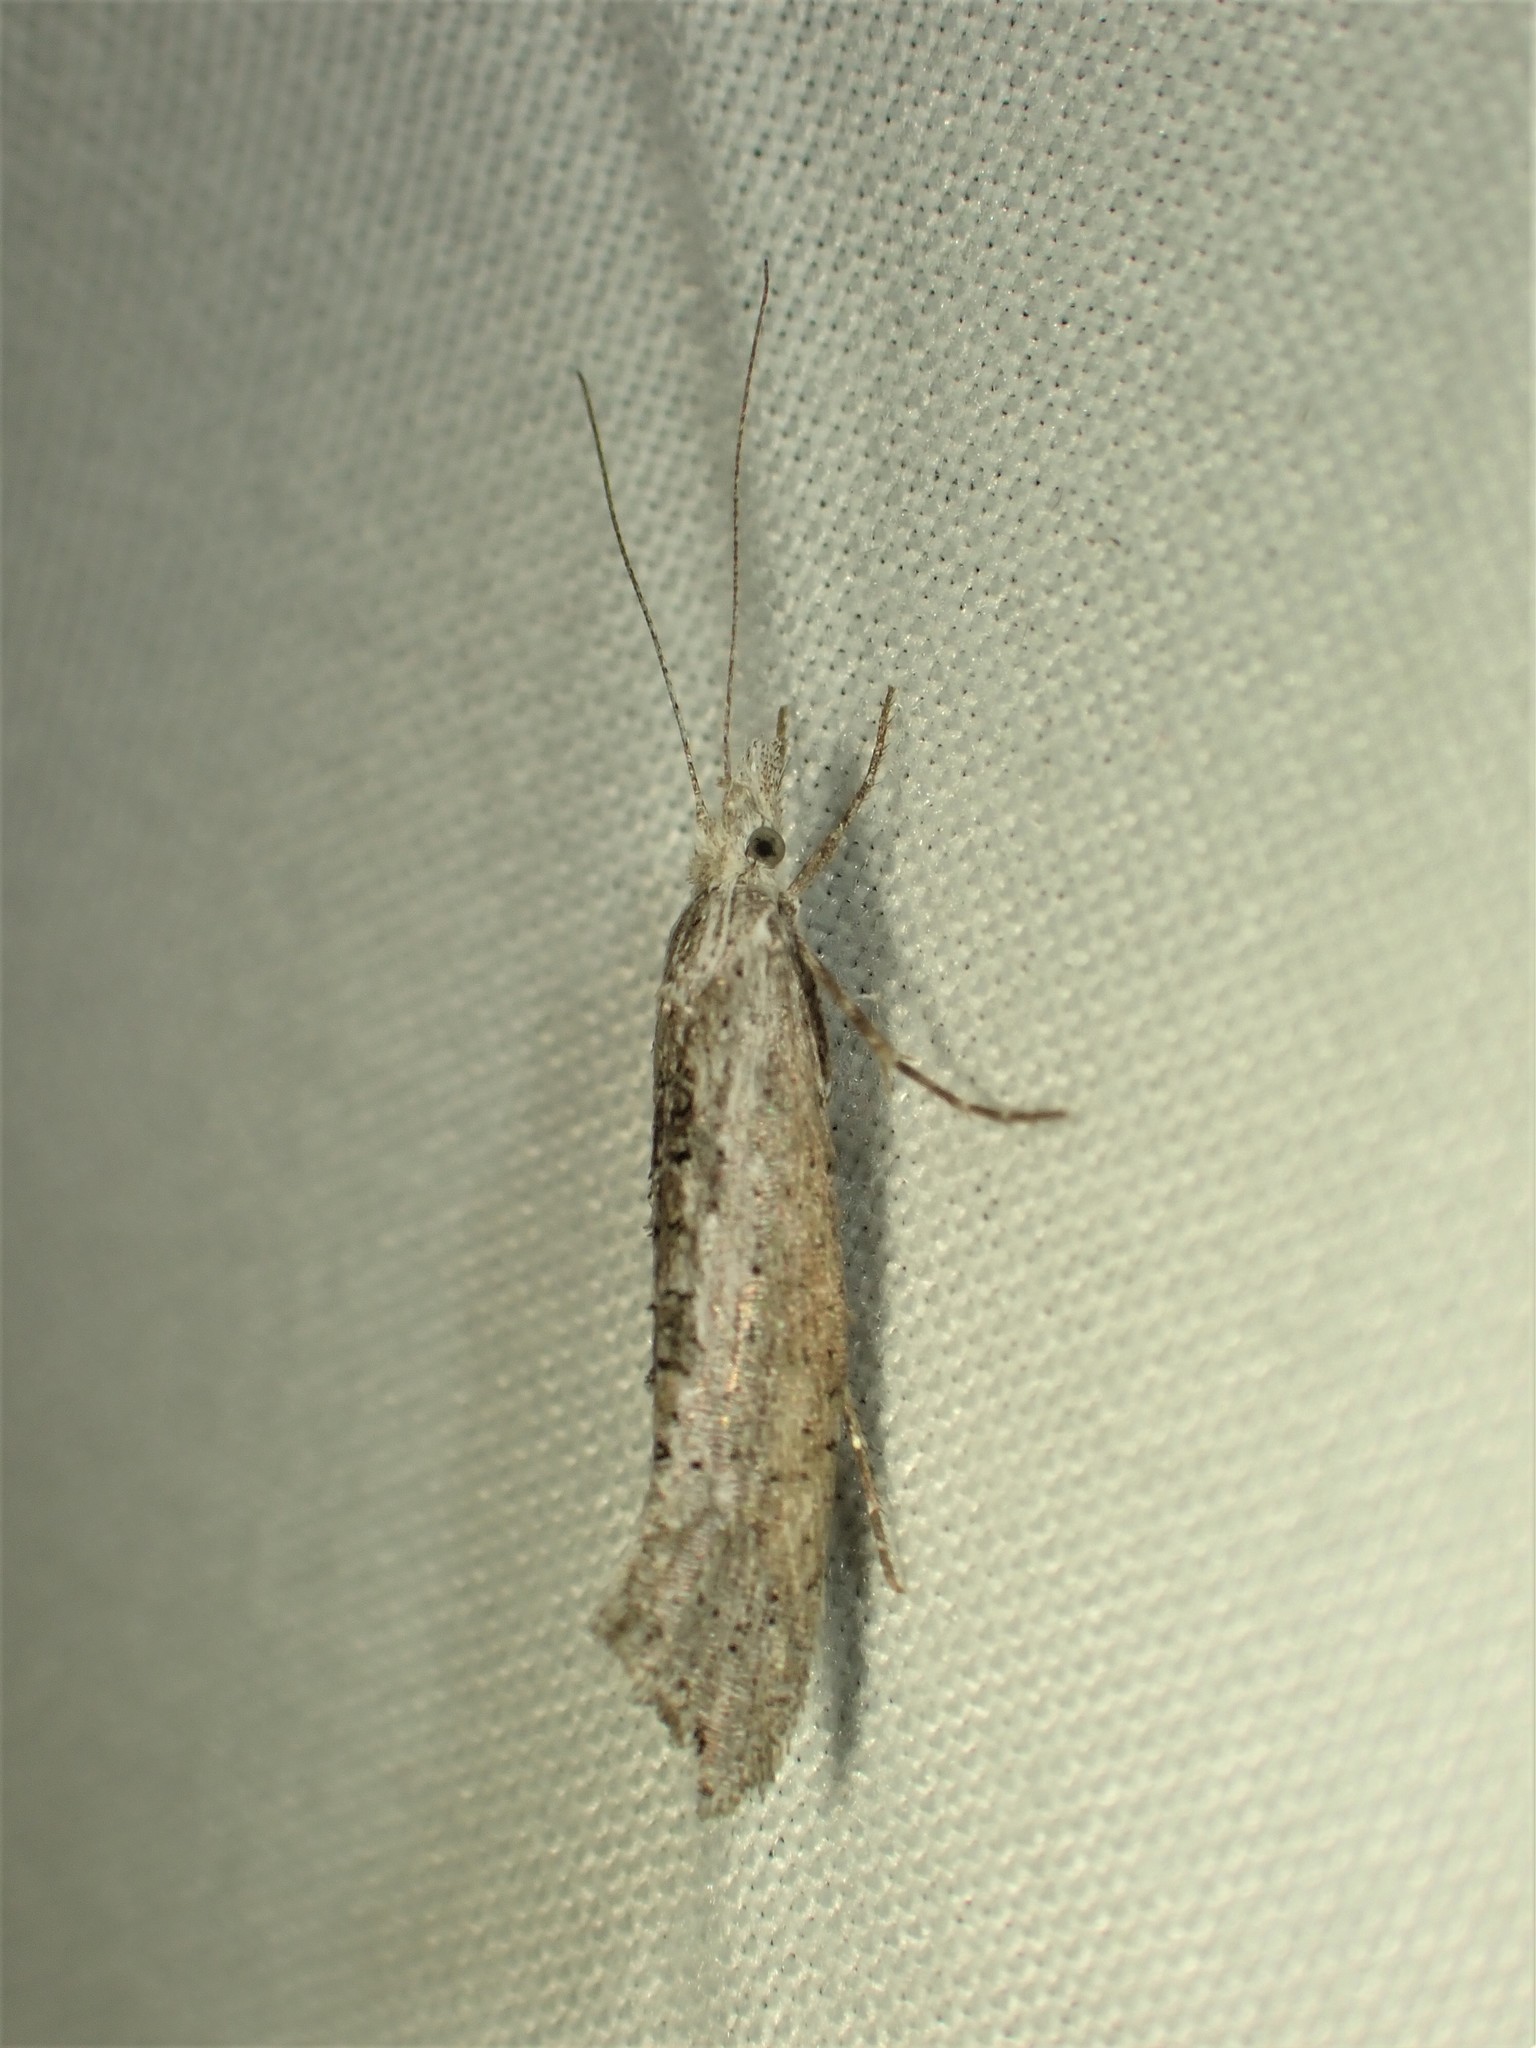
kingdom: Animalia
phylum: Arthropoda
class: Insecta
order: Lepidoptera
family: Ypsolophidae
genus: Ypsolopha
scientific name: Ypsolopha falciferella
